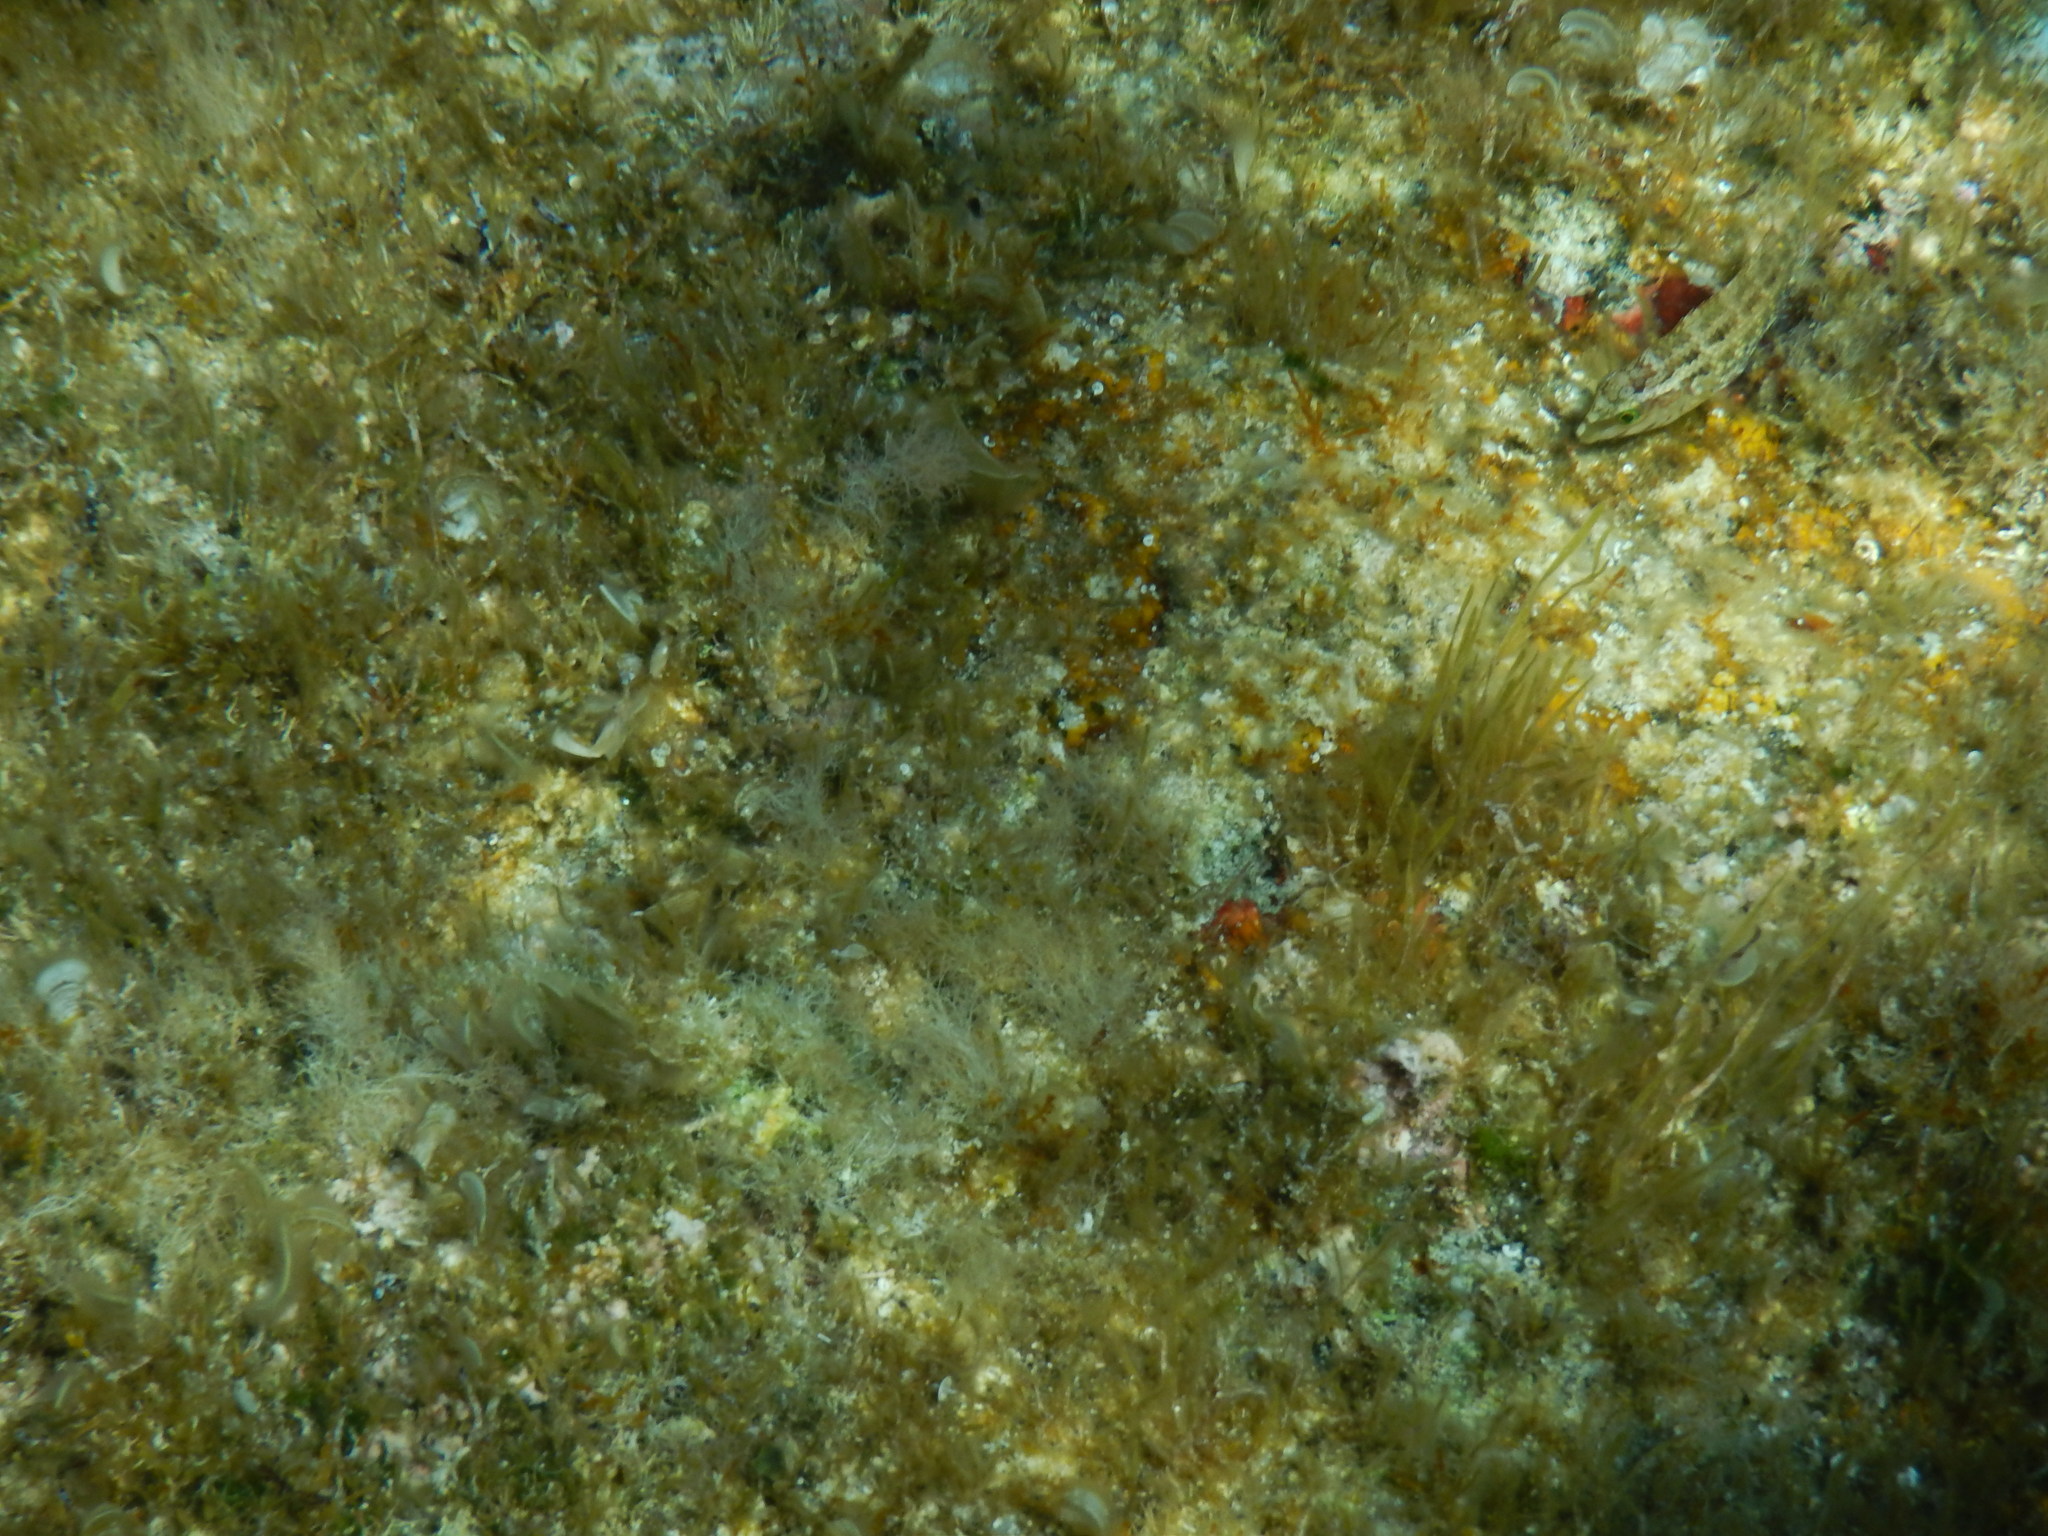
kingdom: Animalia
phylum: Chordata
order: Perciformes
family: Labridae
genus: Symphodus
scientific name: Symphodus roissali
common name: Five-spotted wrasse
